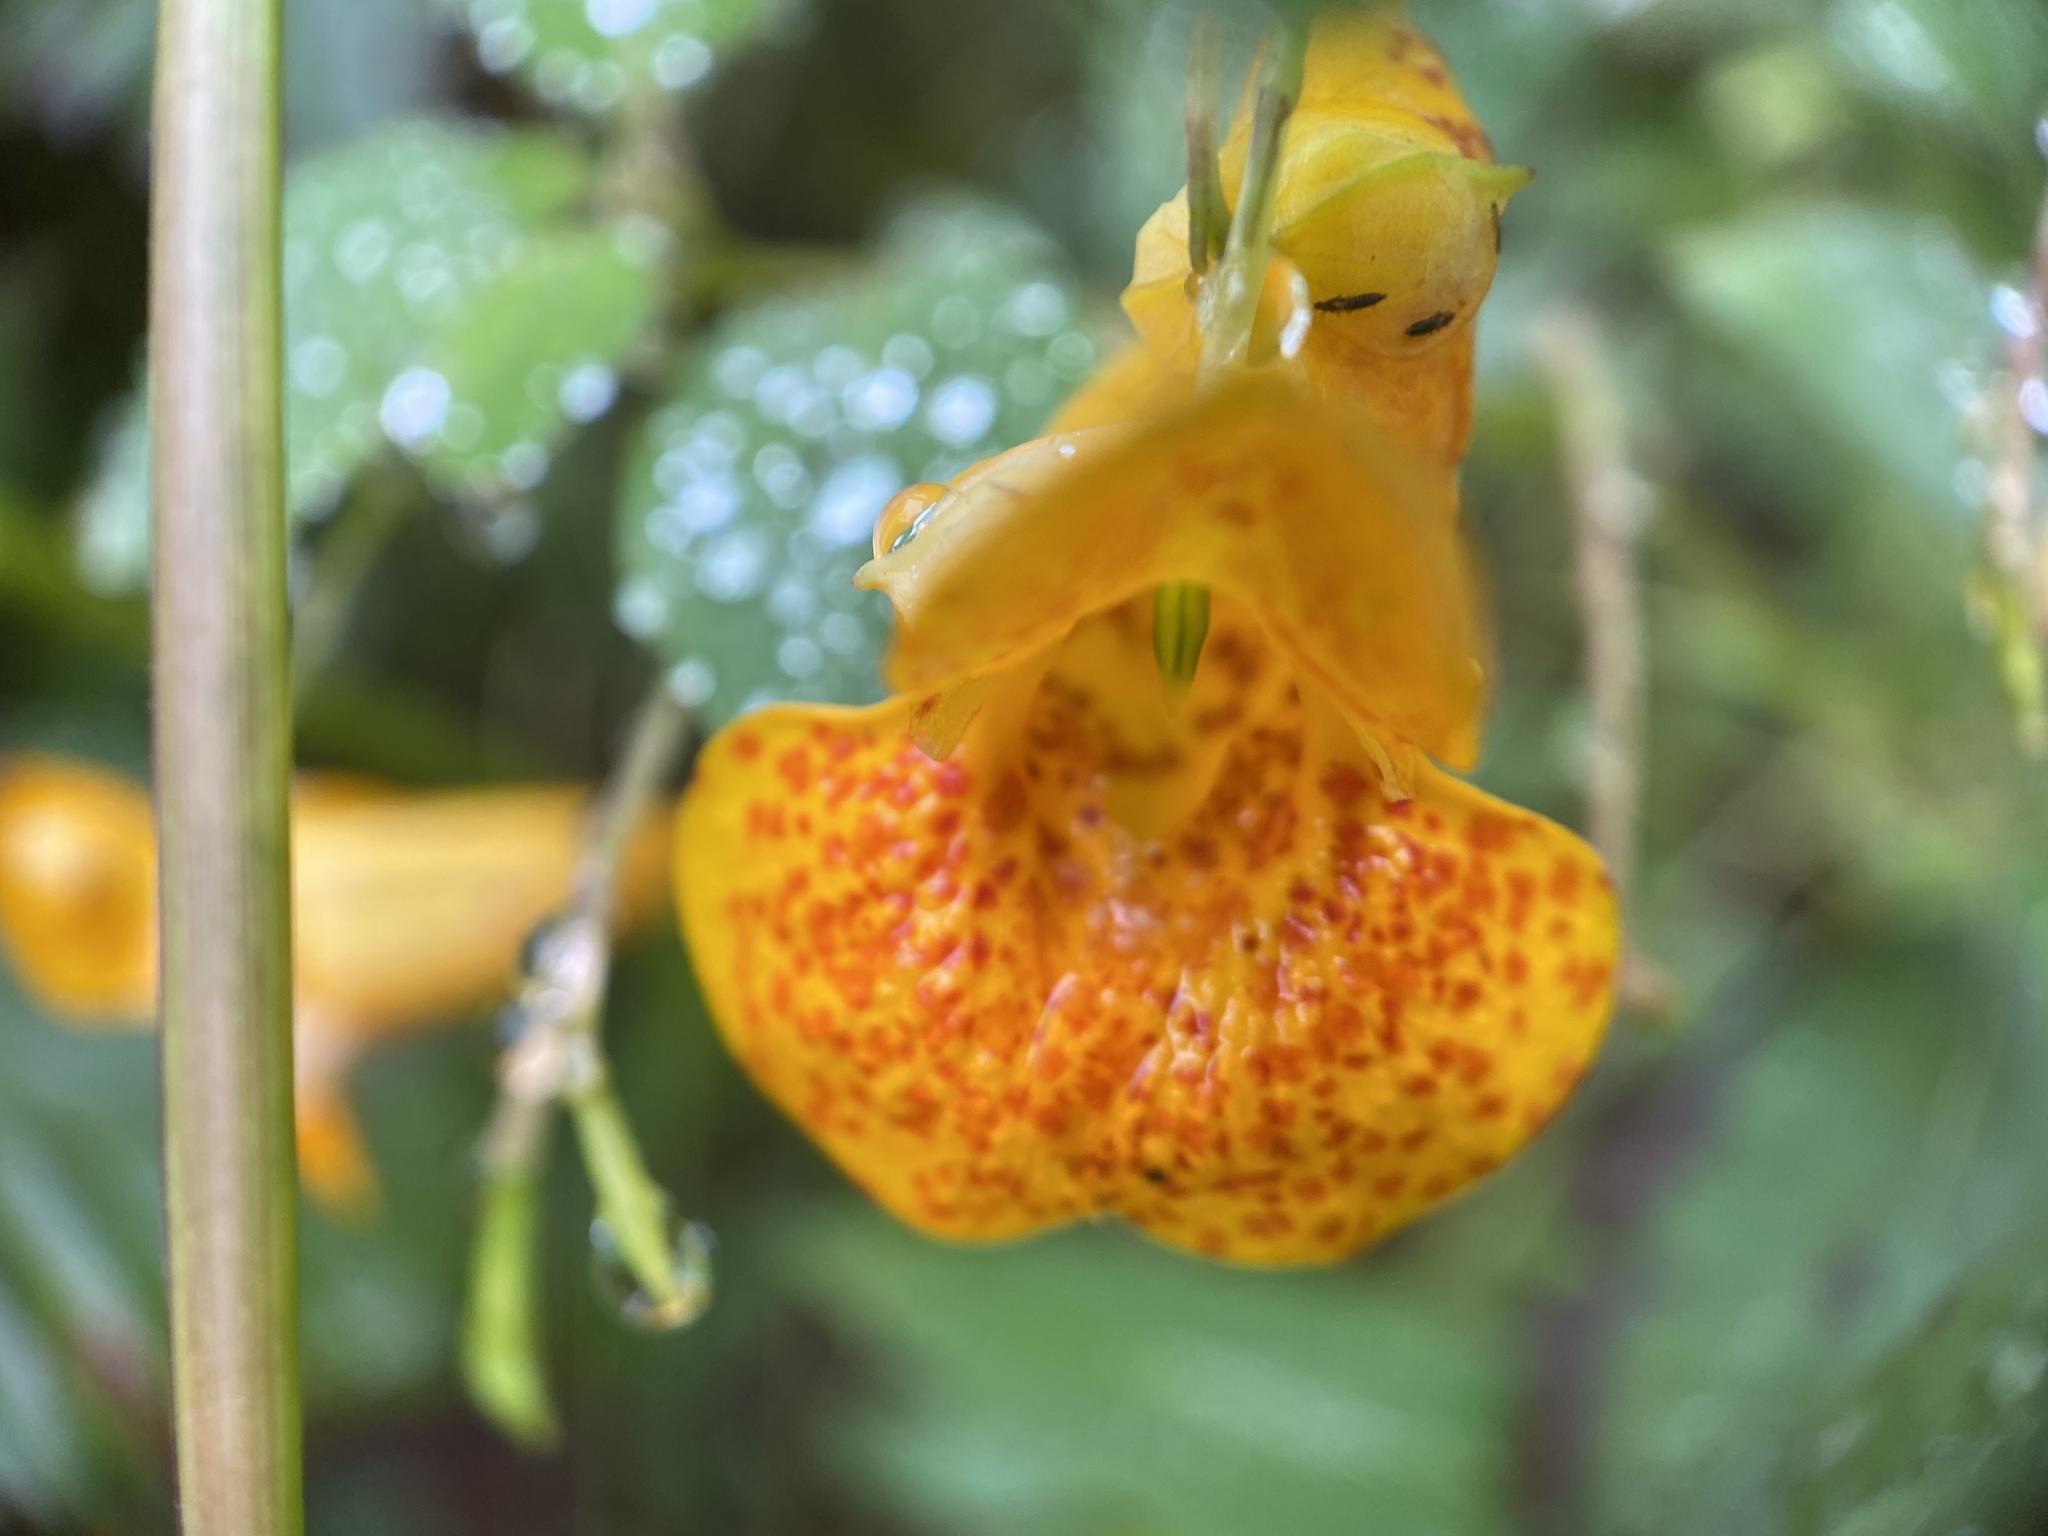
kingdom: Plantae
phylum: Tracheophyta
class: Magnoliopsida
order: Ericales
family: Balsaminaceae
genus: Impatiens
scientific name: Impatiens capensis
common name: Orange balsam
